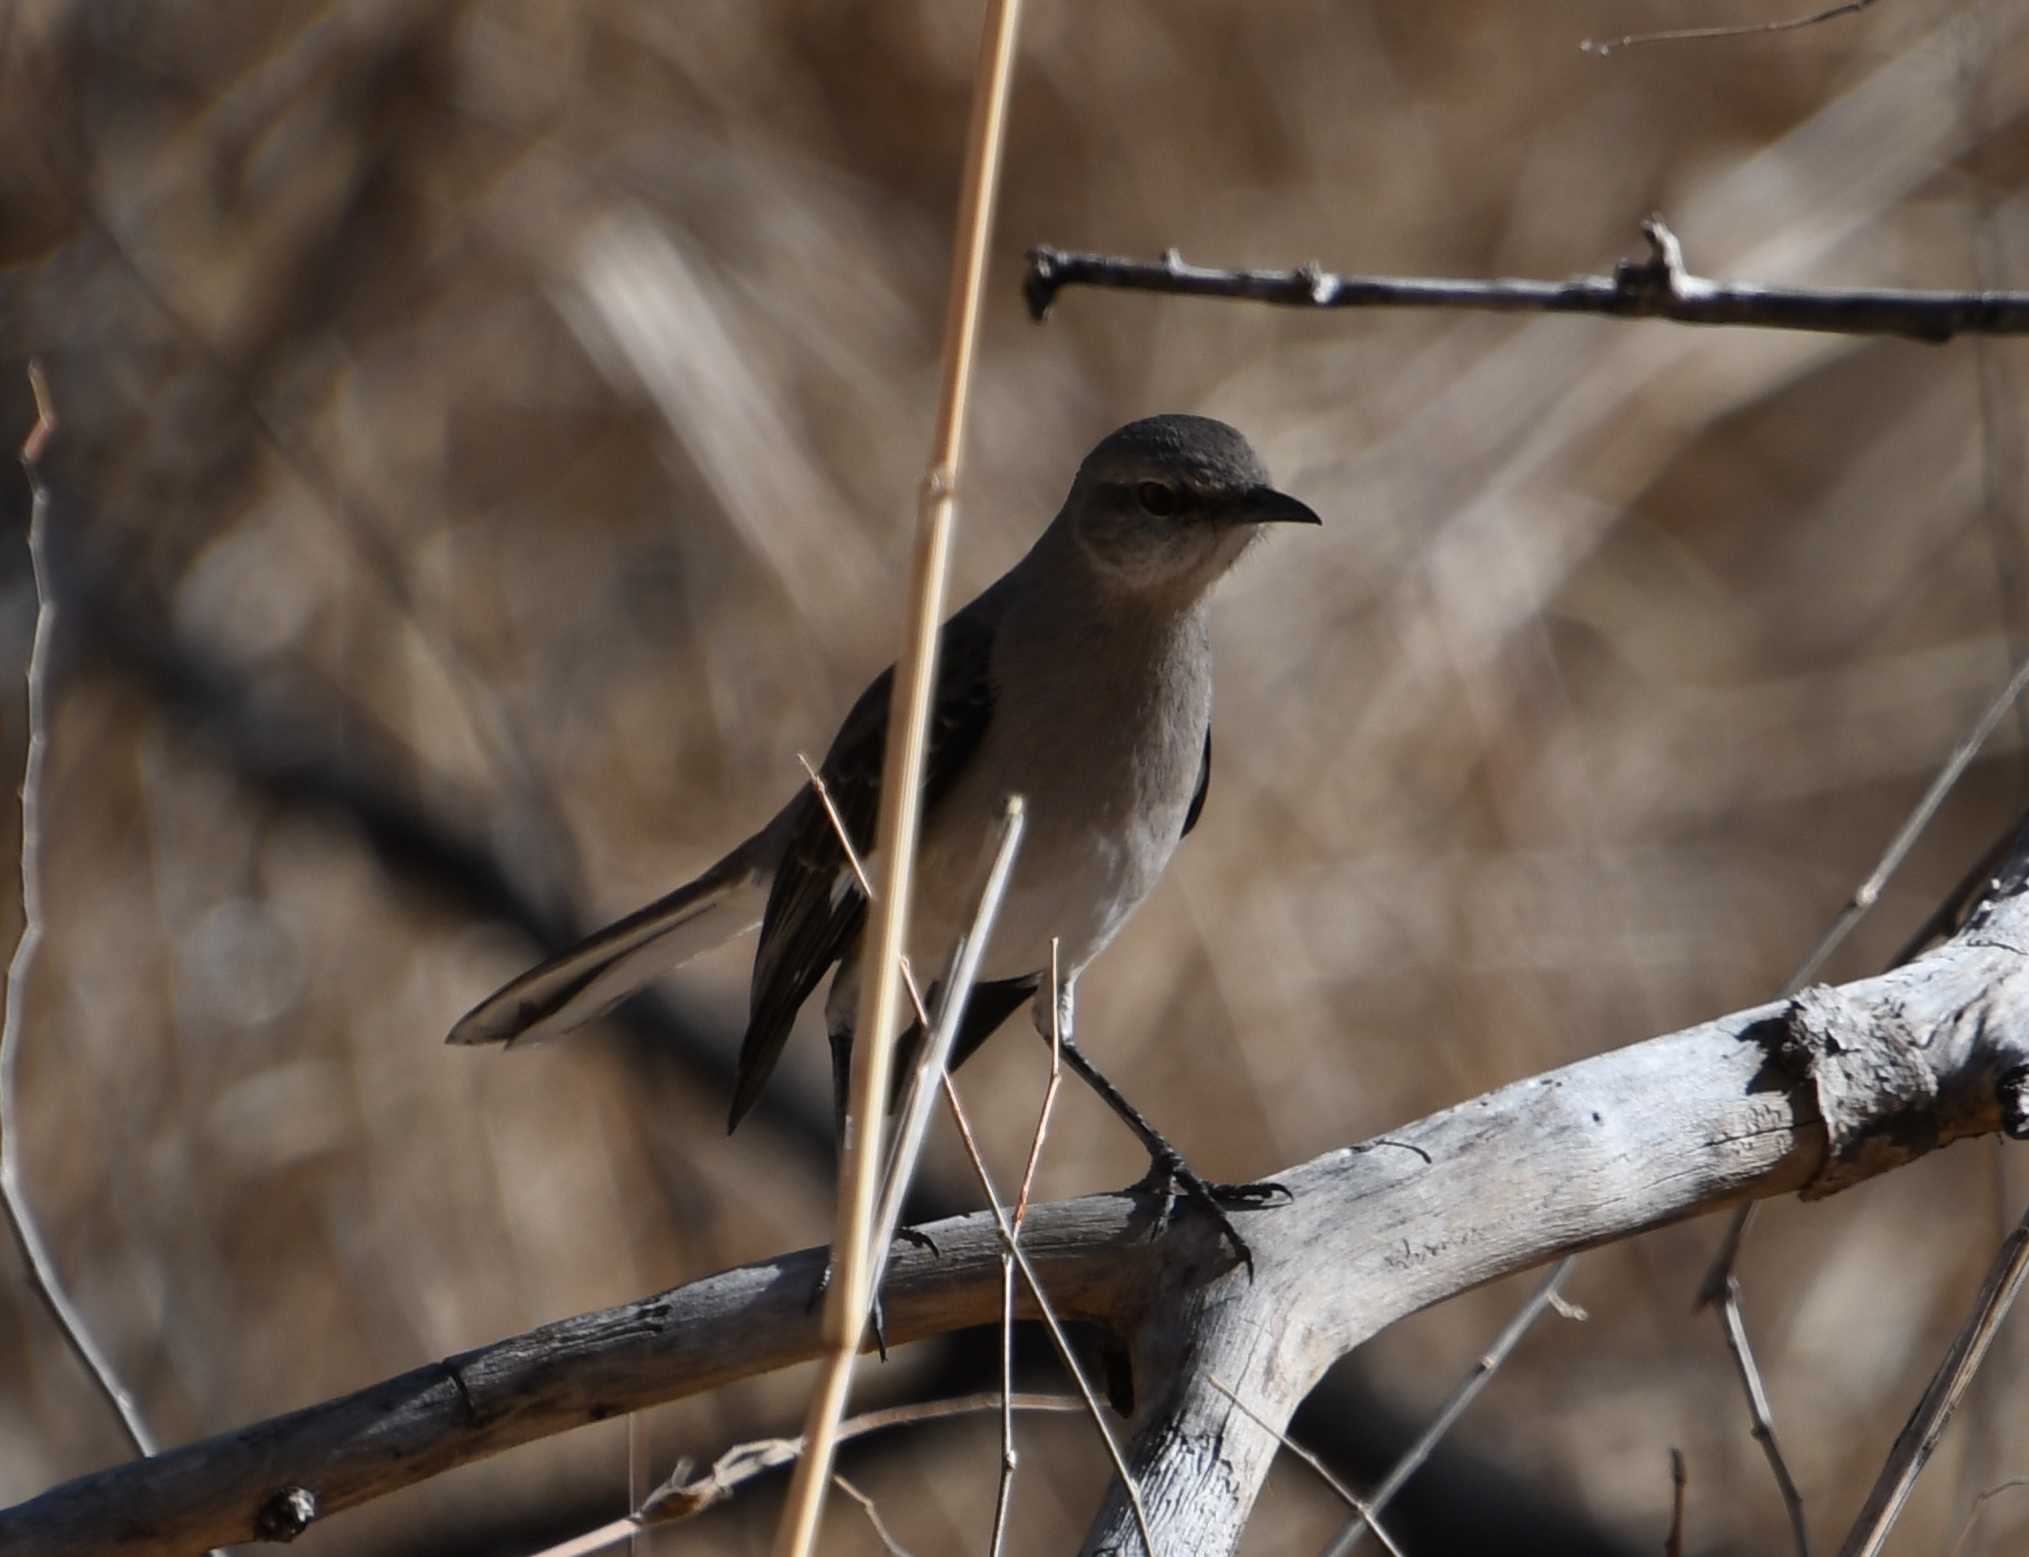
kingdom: Animalia
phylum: Chordata
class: Aves
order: Passeriformes
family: Mimidae
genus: Mimus
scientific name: Mimus polyglottos
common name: Northern mockingbird
